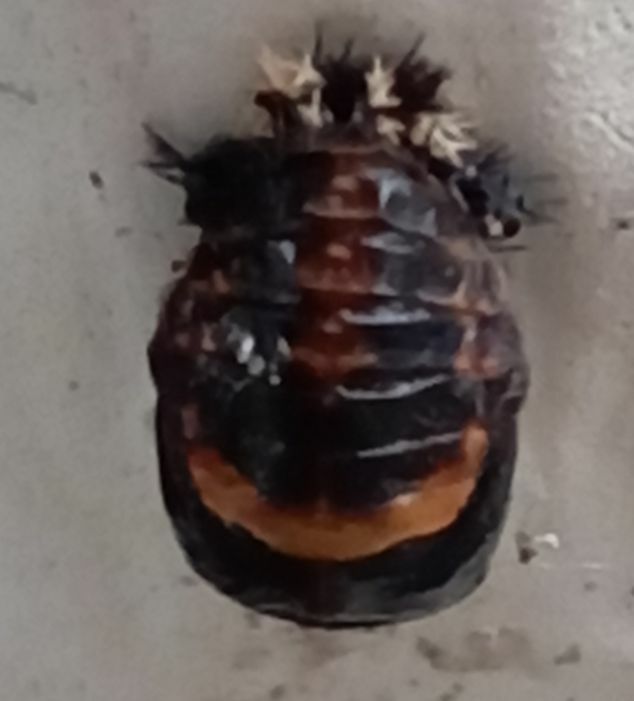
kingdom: Animalia
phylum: Arthropoda
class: Insecta
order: Coleoptera
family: Coccinellidae
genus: Harmonia
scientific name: Harmonia axyridis
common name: Harlequin ladybird
